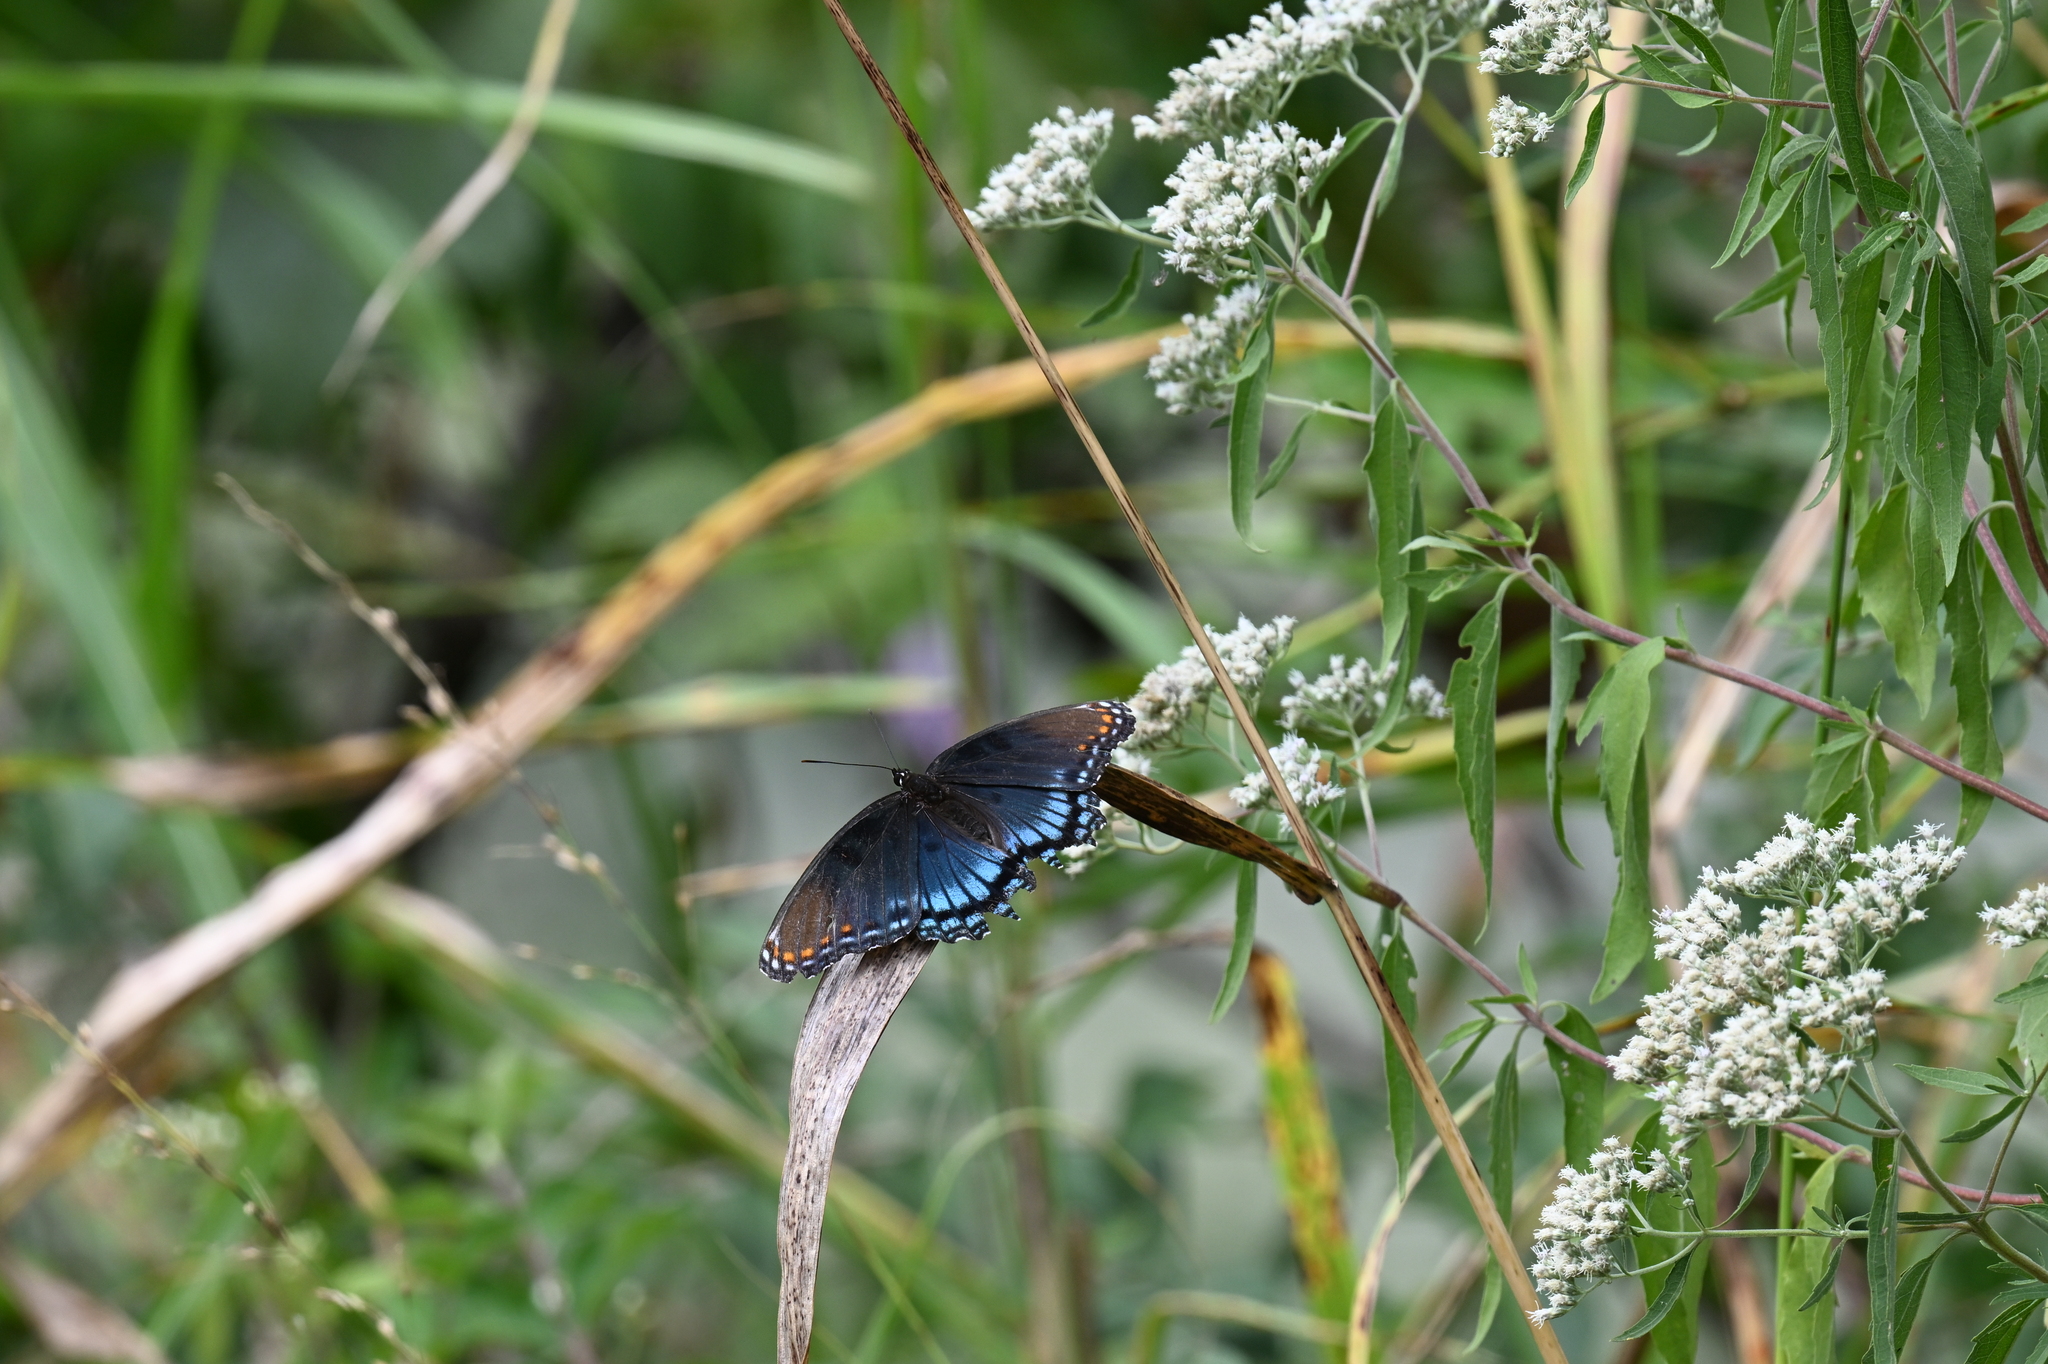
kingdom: Animalia
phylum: Arthropoda
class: Insecta
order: Lepidoptera
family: Nymphalidae
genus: Limenitis
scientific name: Limenitis astyanax
